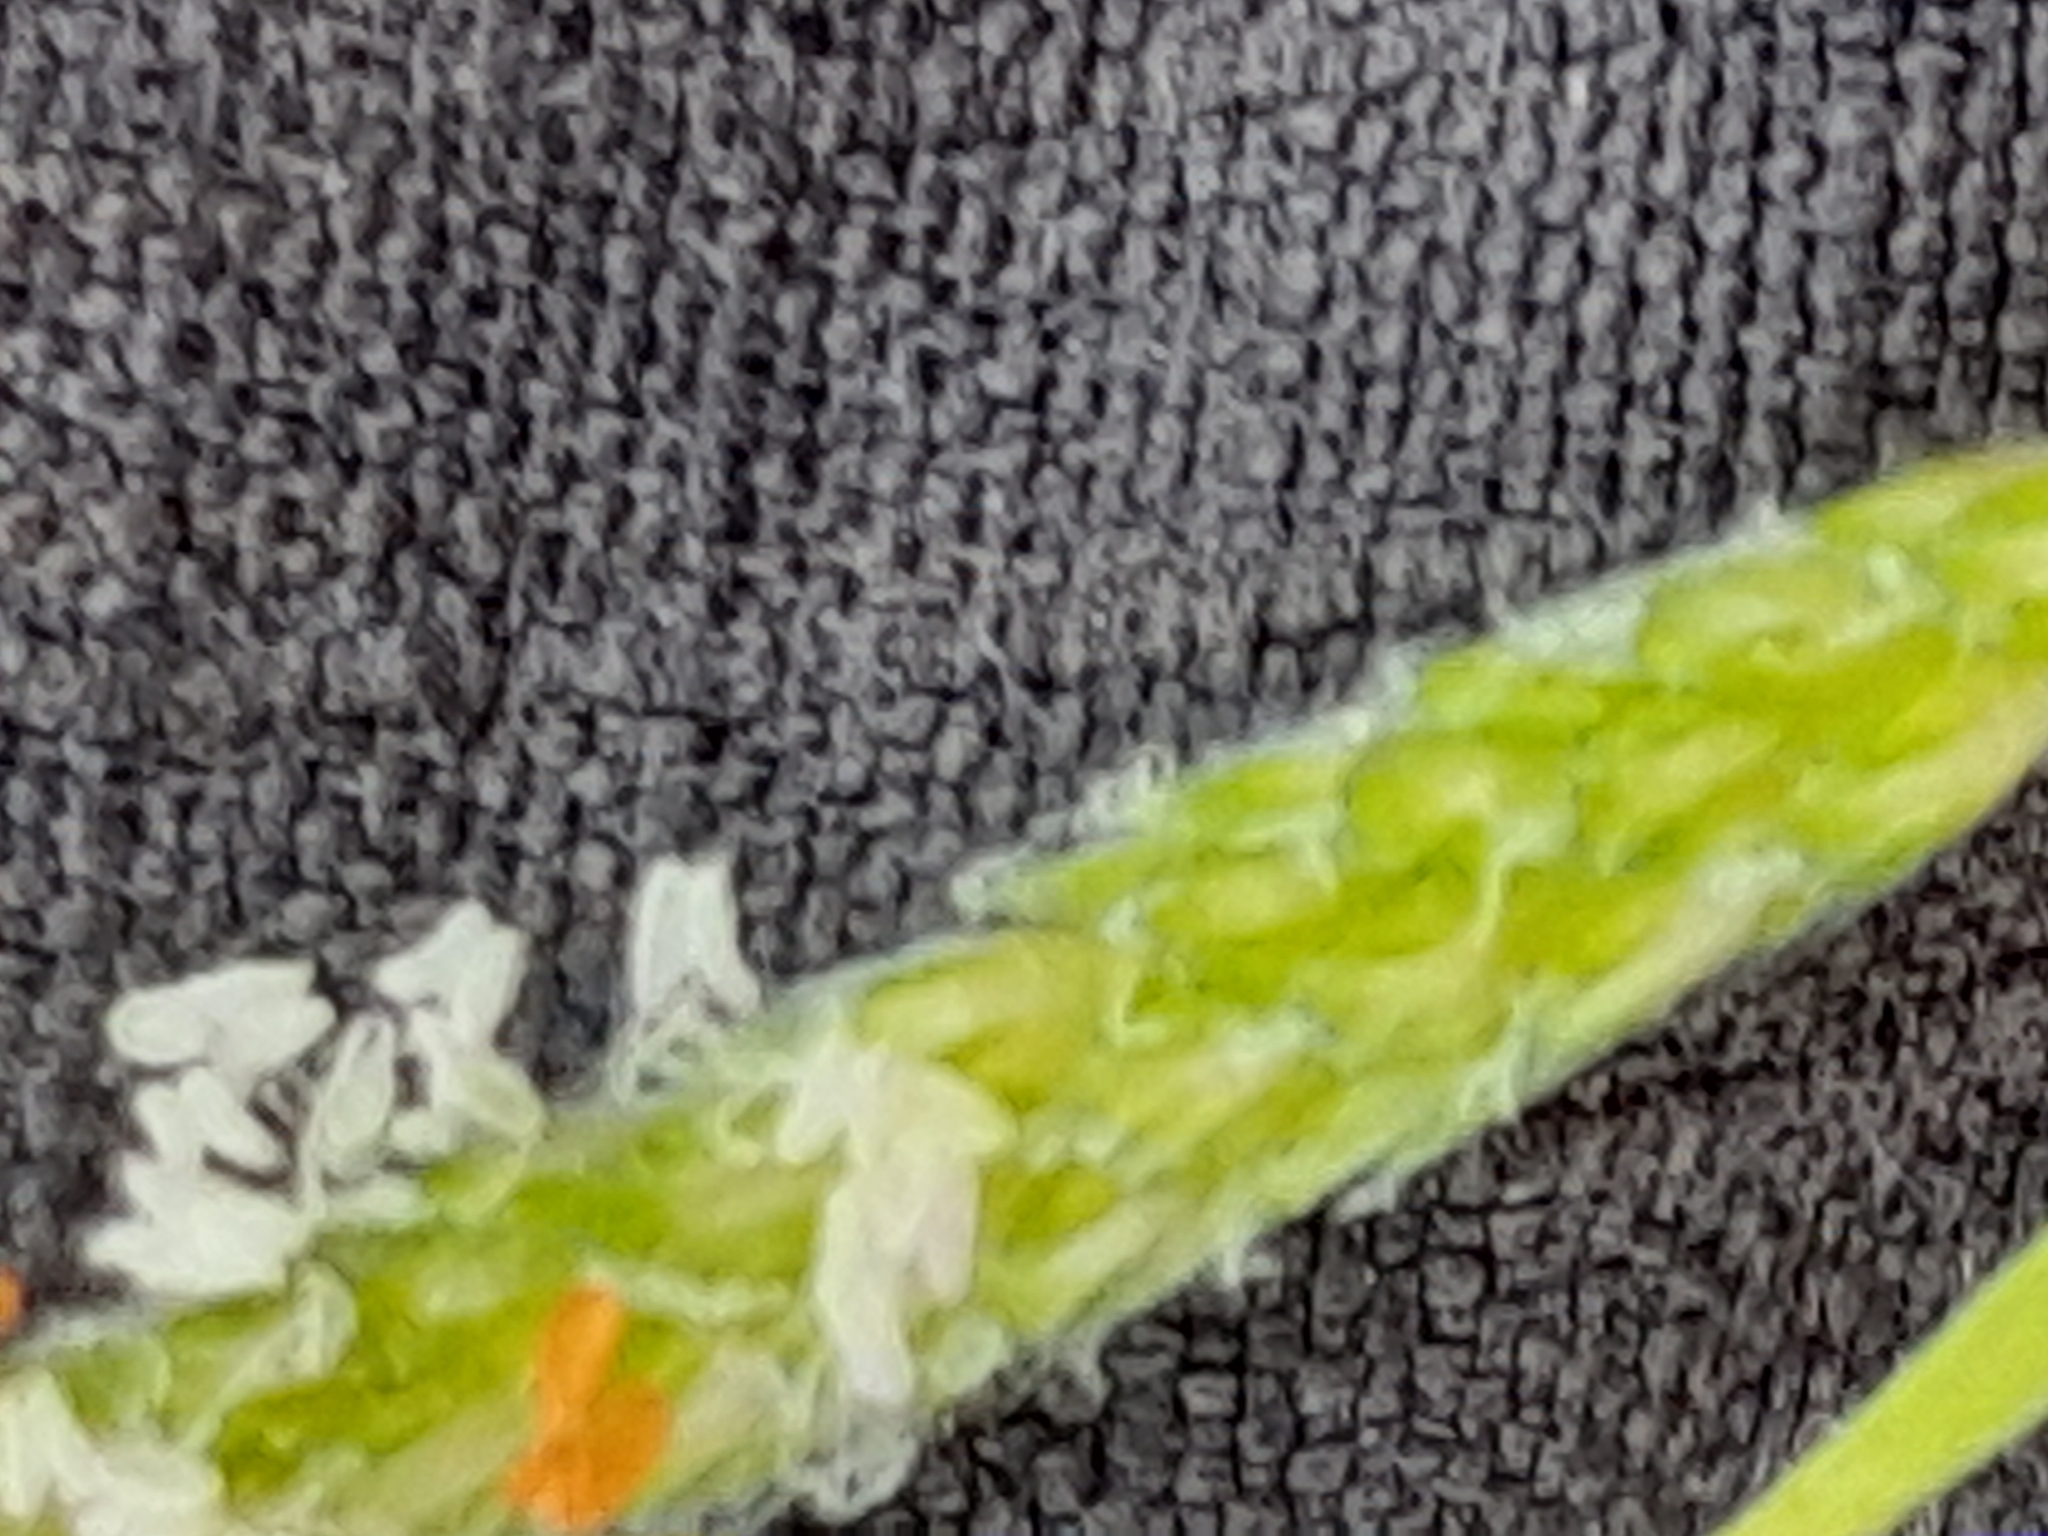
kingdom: Plantae
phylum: Tracheophyta
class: Liliopsida
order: Poales
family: Poaceae
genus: Alopecurus
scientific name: Alopecurus aequalis
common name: Orange foxtail
